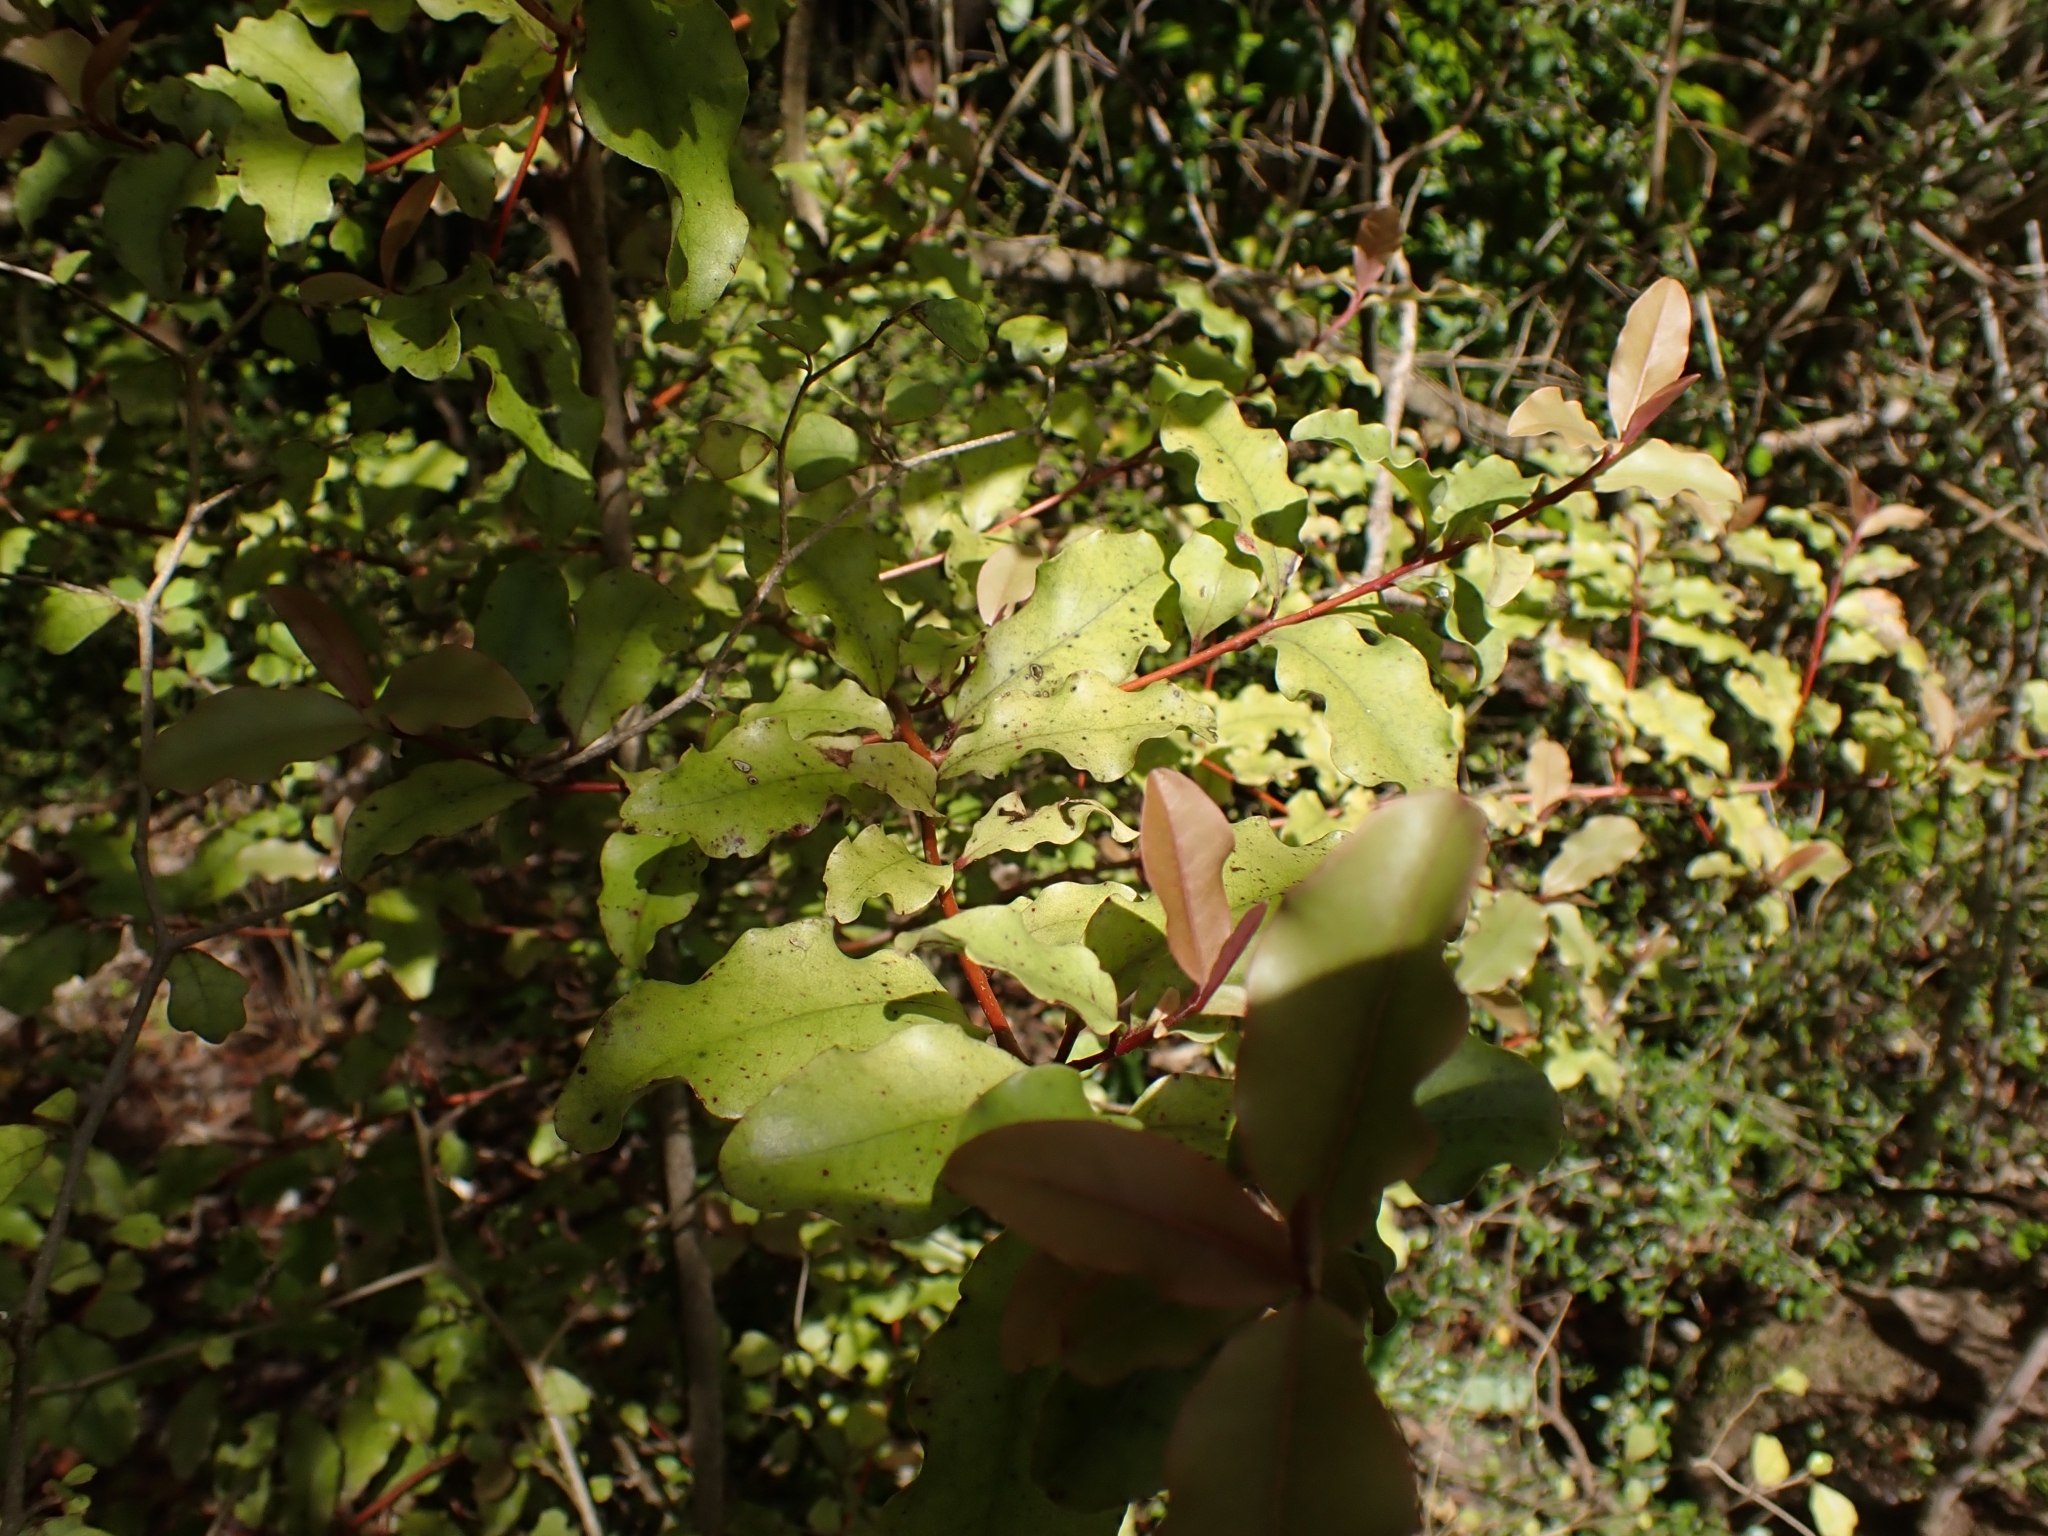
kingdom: Plantae
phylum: Tracheophyta
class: Magnoliopsida
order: Ericales
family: Primulaceae
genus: Myrsine
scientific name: Myrsine australis
